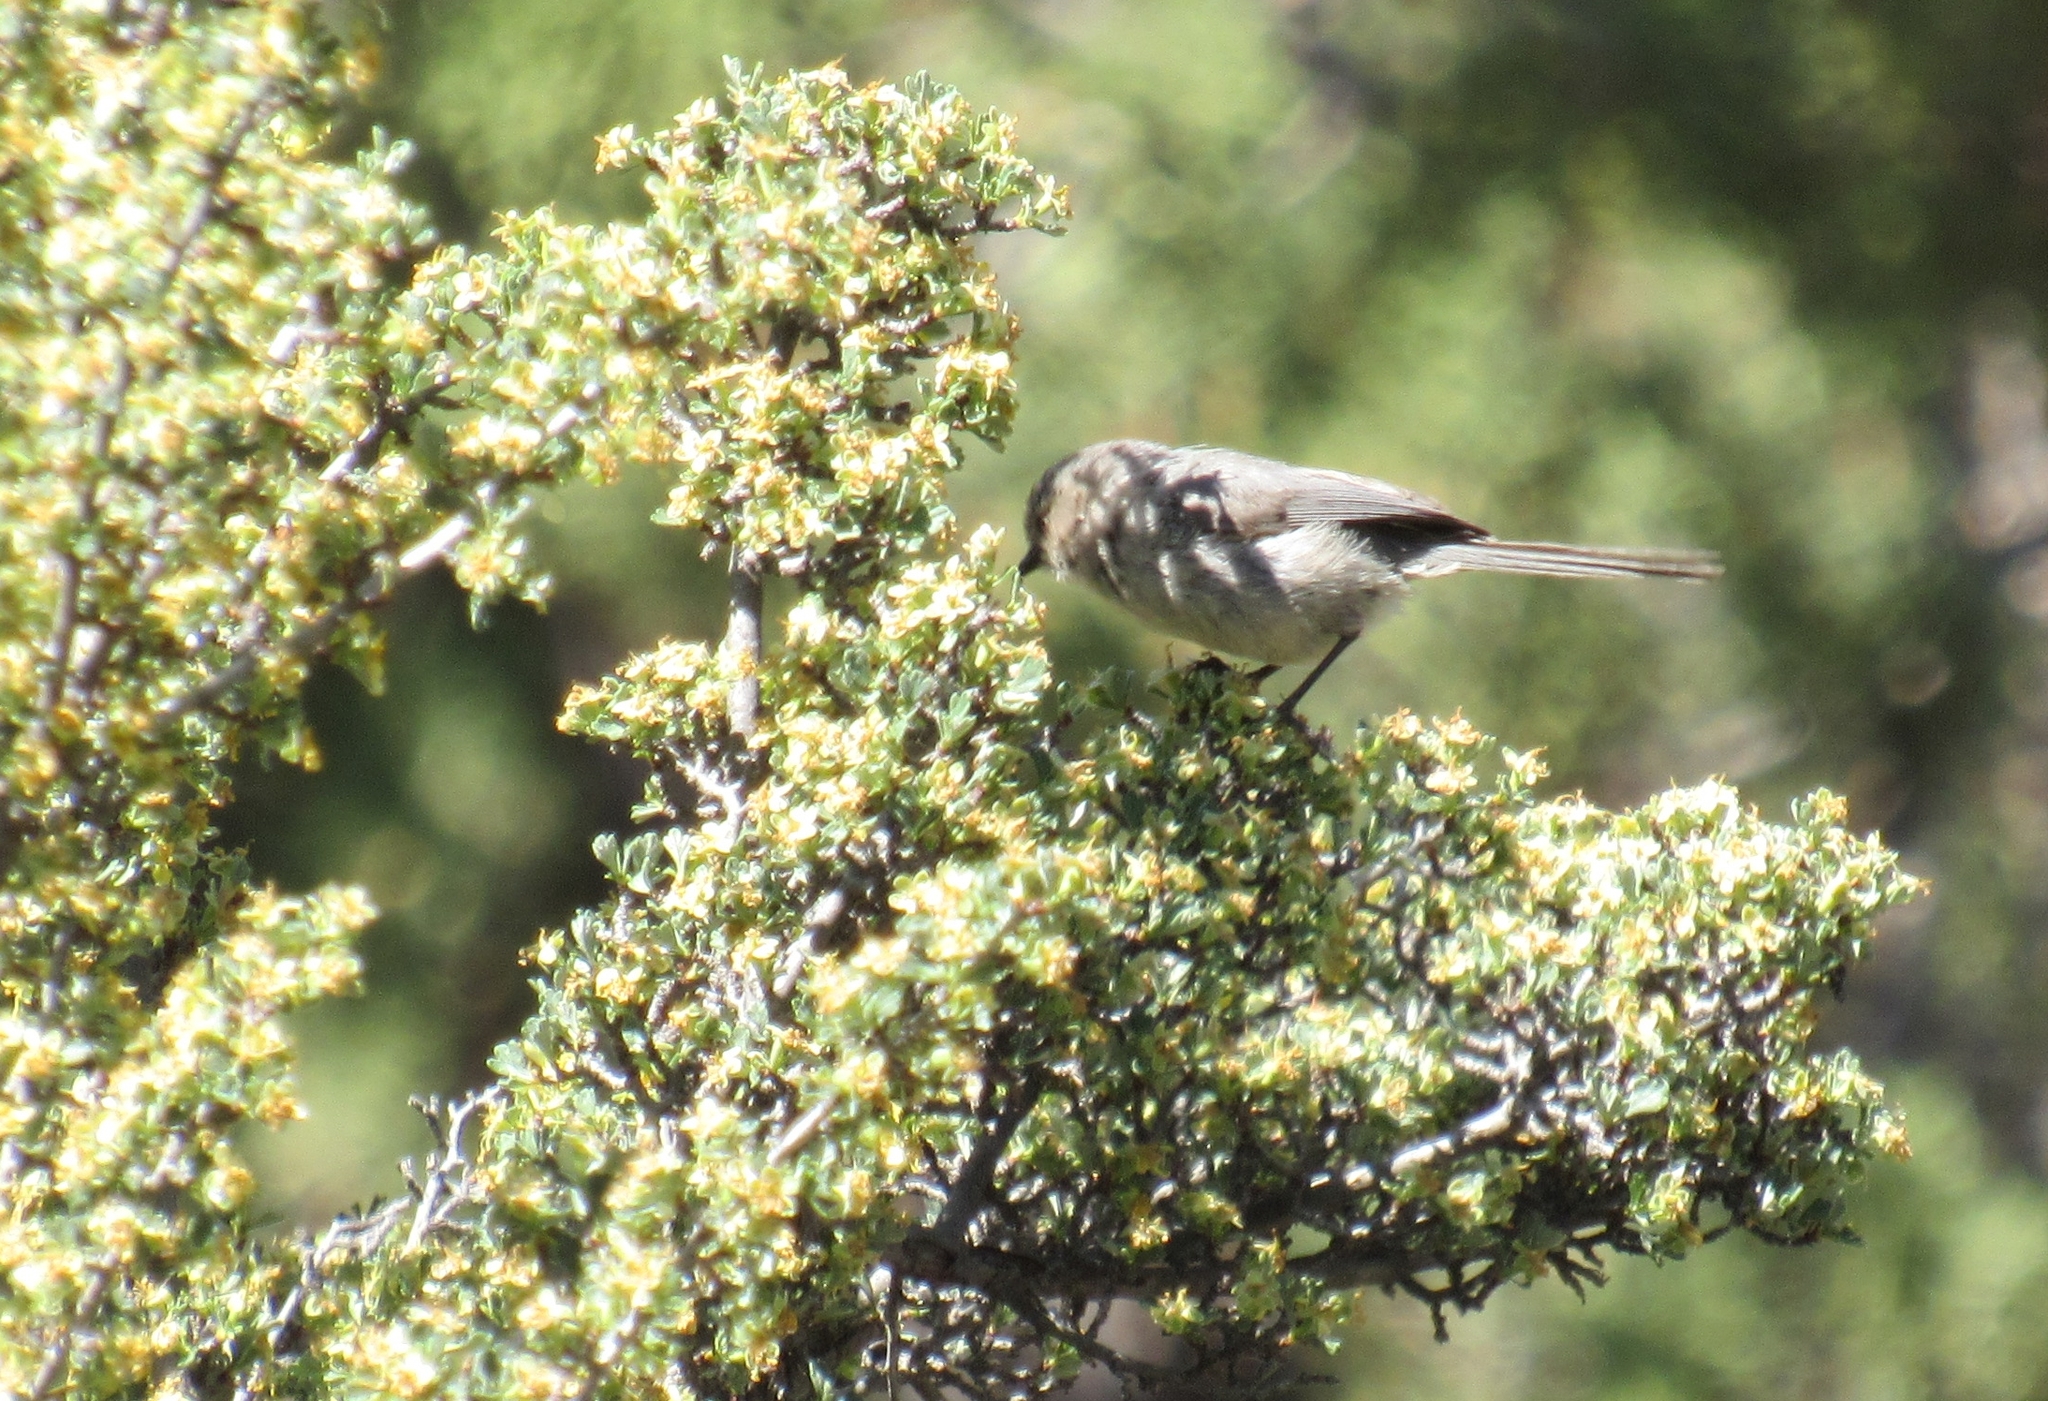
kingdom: Animalia
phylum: Chordata
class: Aves
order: Passeriformes
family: Aegithalidae
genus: Psaltriparus
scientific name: Psaltriparus minimus
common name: American bushtit
